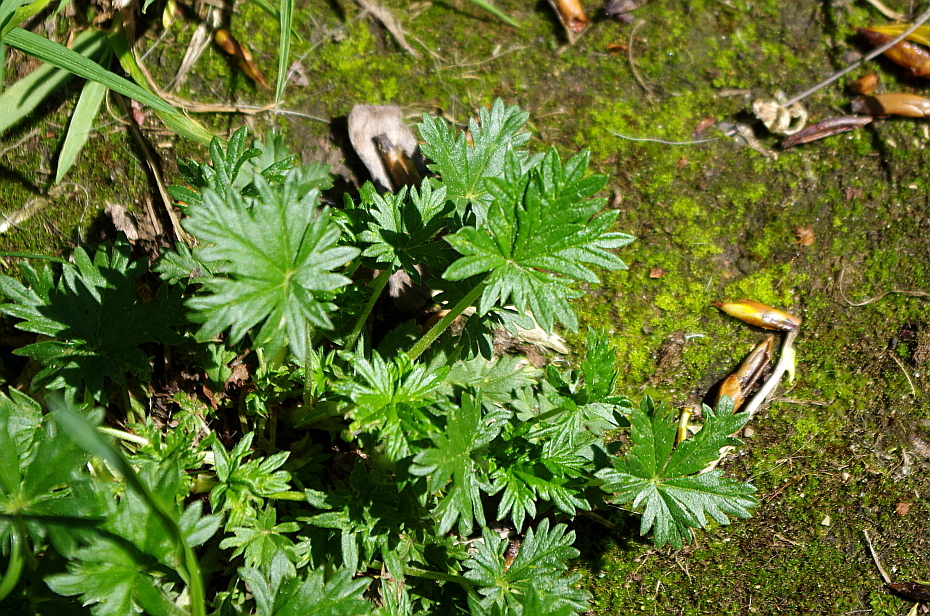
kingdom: Plantae
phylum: Tracheophyta
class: Magnoliopsida
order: Rosales
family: Rosaceae
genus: Potentilla
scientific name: Potentilla argentea
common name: Hoary cinquefoil
